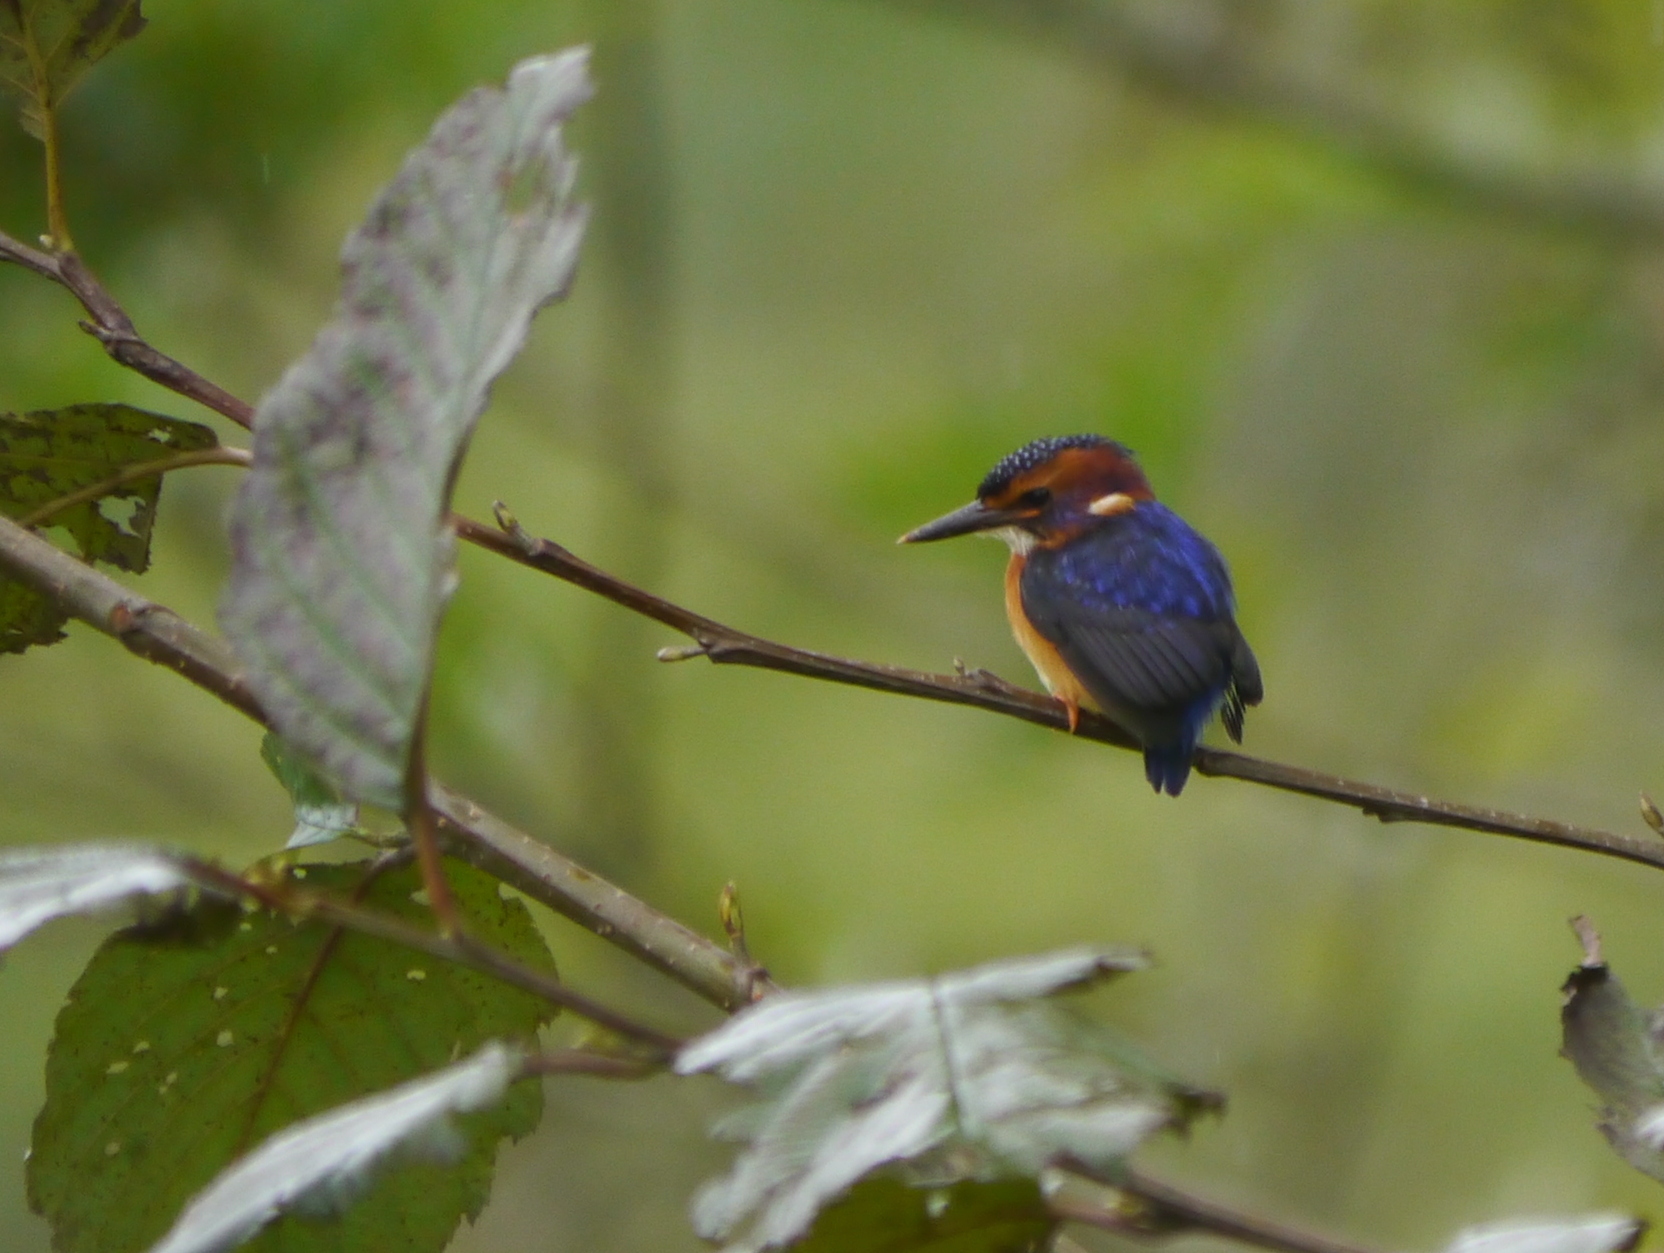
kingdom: Animalia
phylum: Chordata
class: Aves
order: Coraciiformes
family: Alcedinidae
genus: Ispidina
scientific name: Ispidina picta
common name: African pygmy-kingfisher
